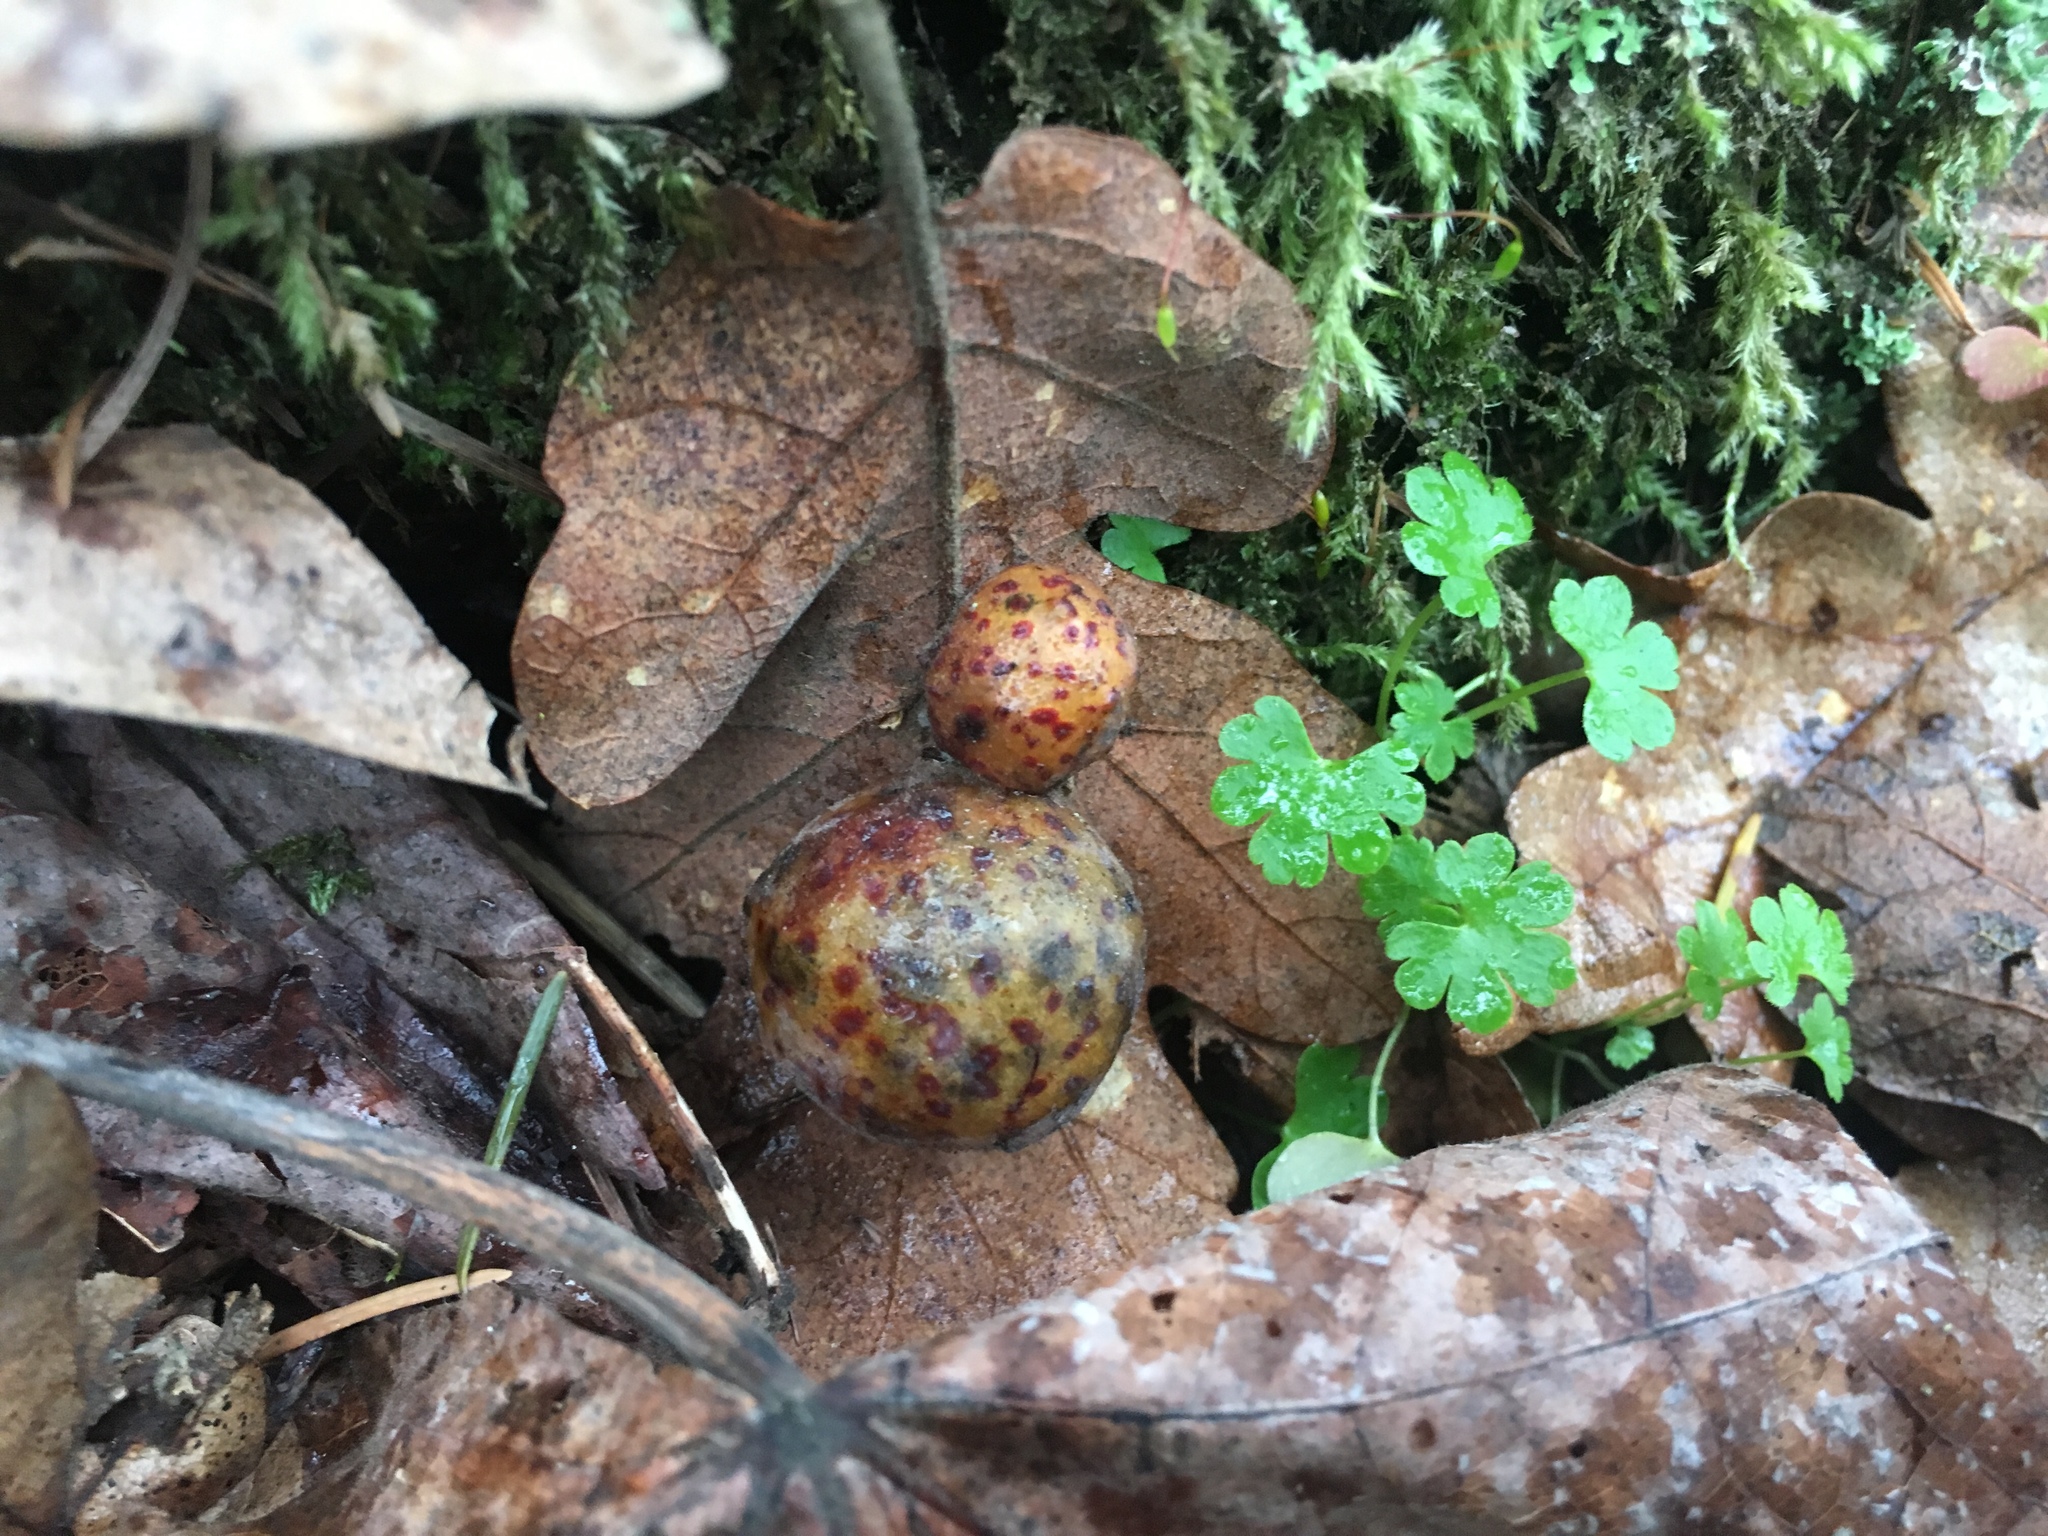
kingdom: Plantae
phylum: Tracheophyta
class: Magnoliopsida
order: Geraniales
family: Geraniaceae
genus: Geranium
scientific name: Geranium lucidum
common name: Shining crane's-bill
